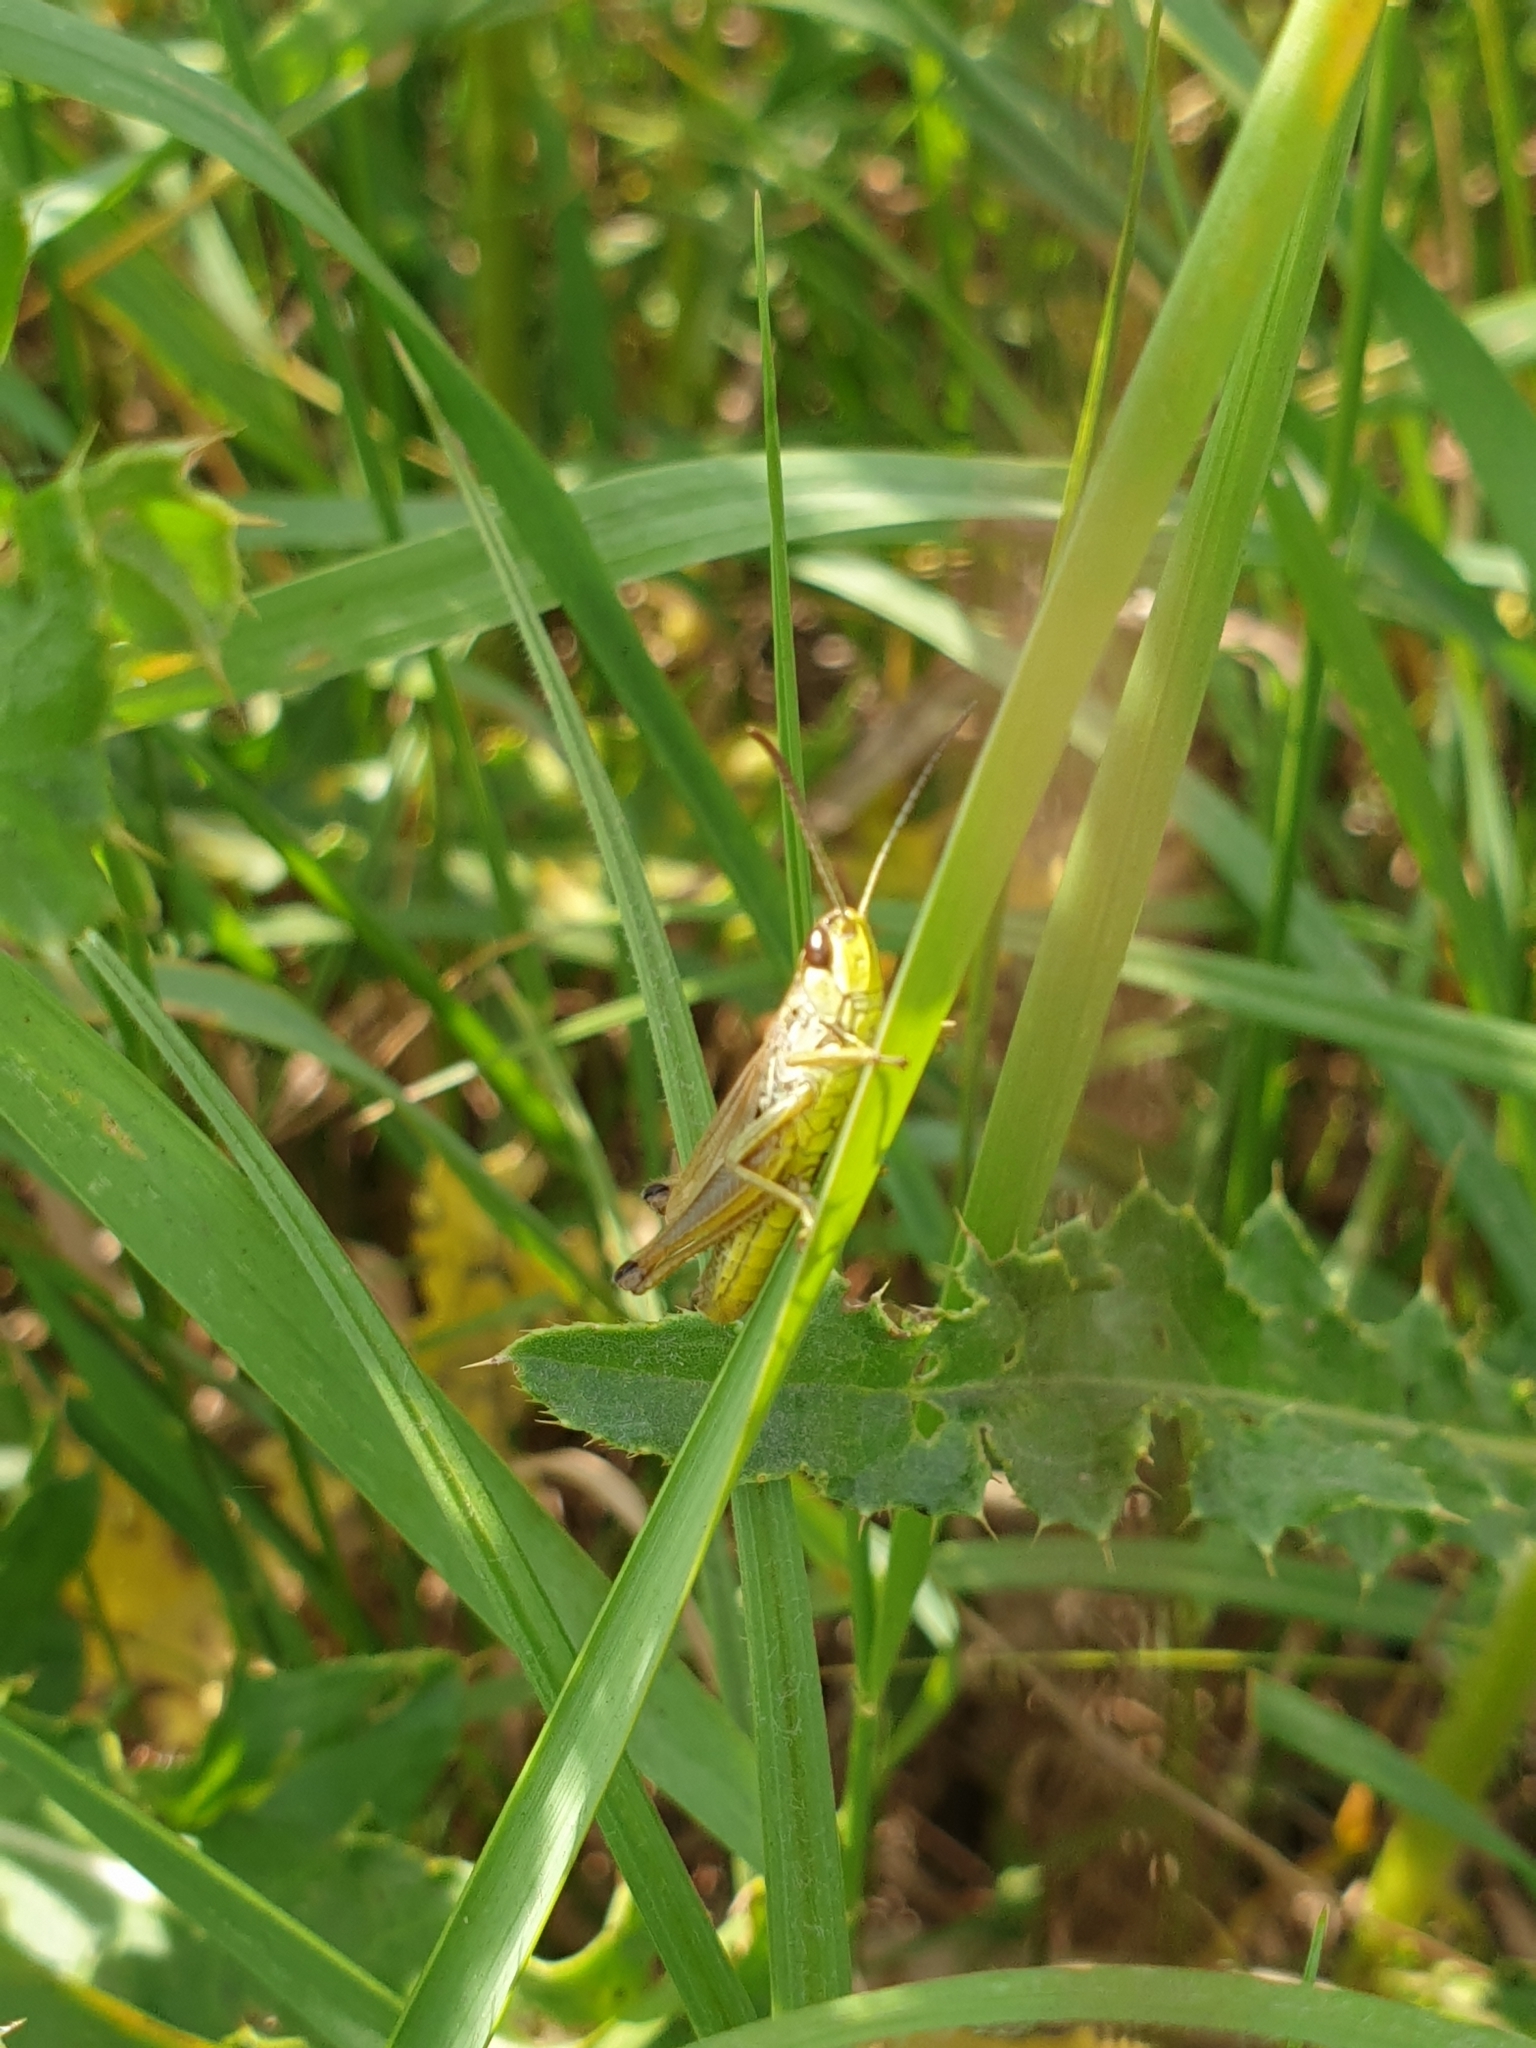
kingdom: Animalia
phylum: Arthropoda
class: Insecta
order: Orthoptera
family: Acrididae
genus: Pseudochorthippus
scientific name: Pseudochorthippus parallelus
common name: Meadow grasshopper
